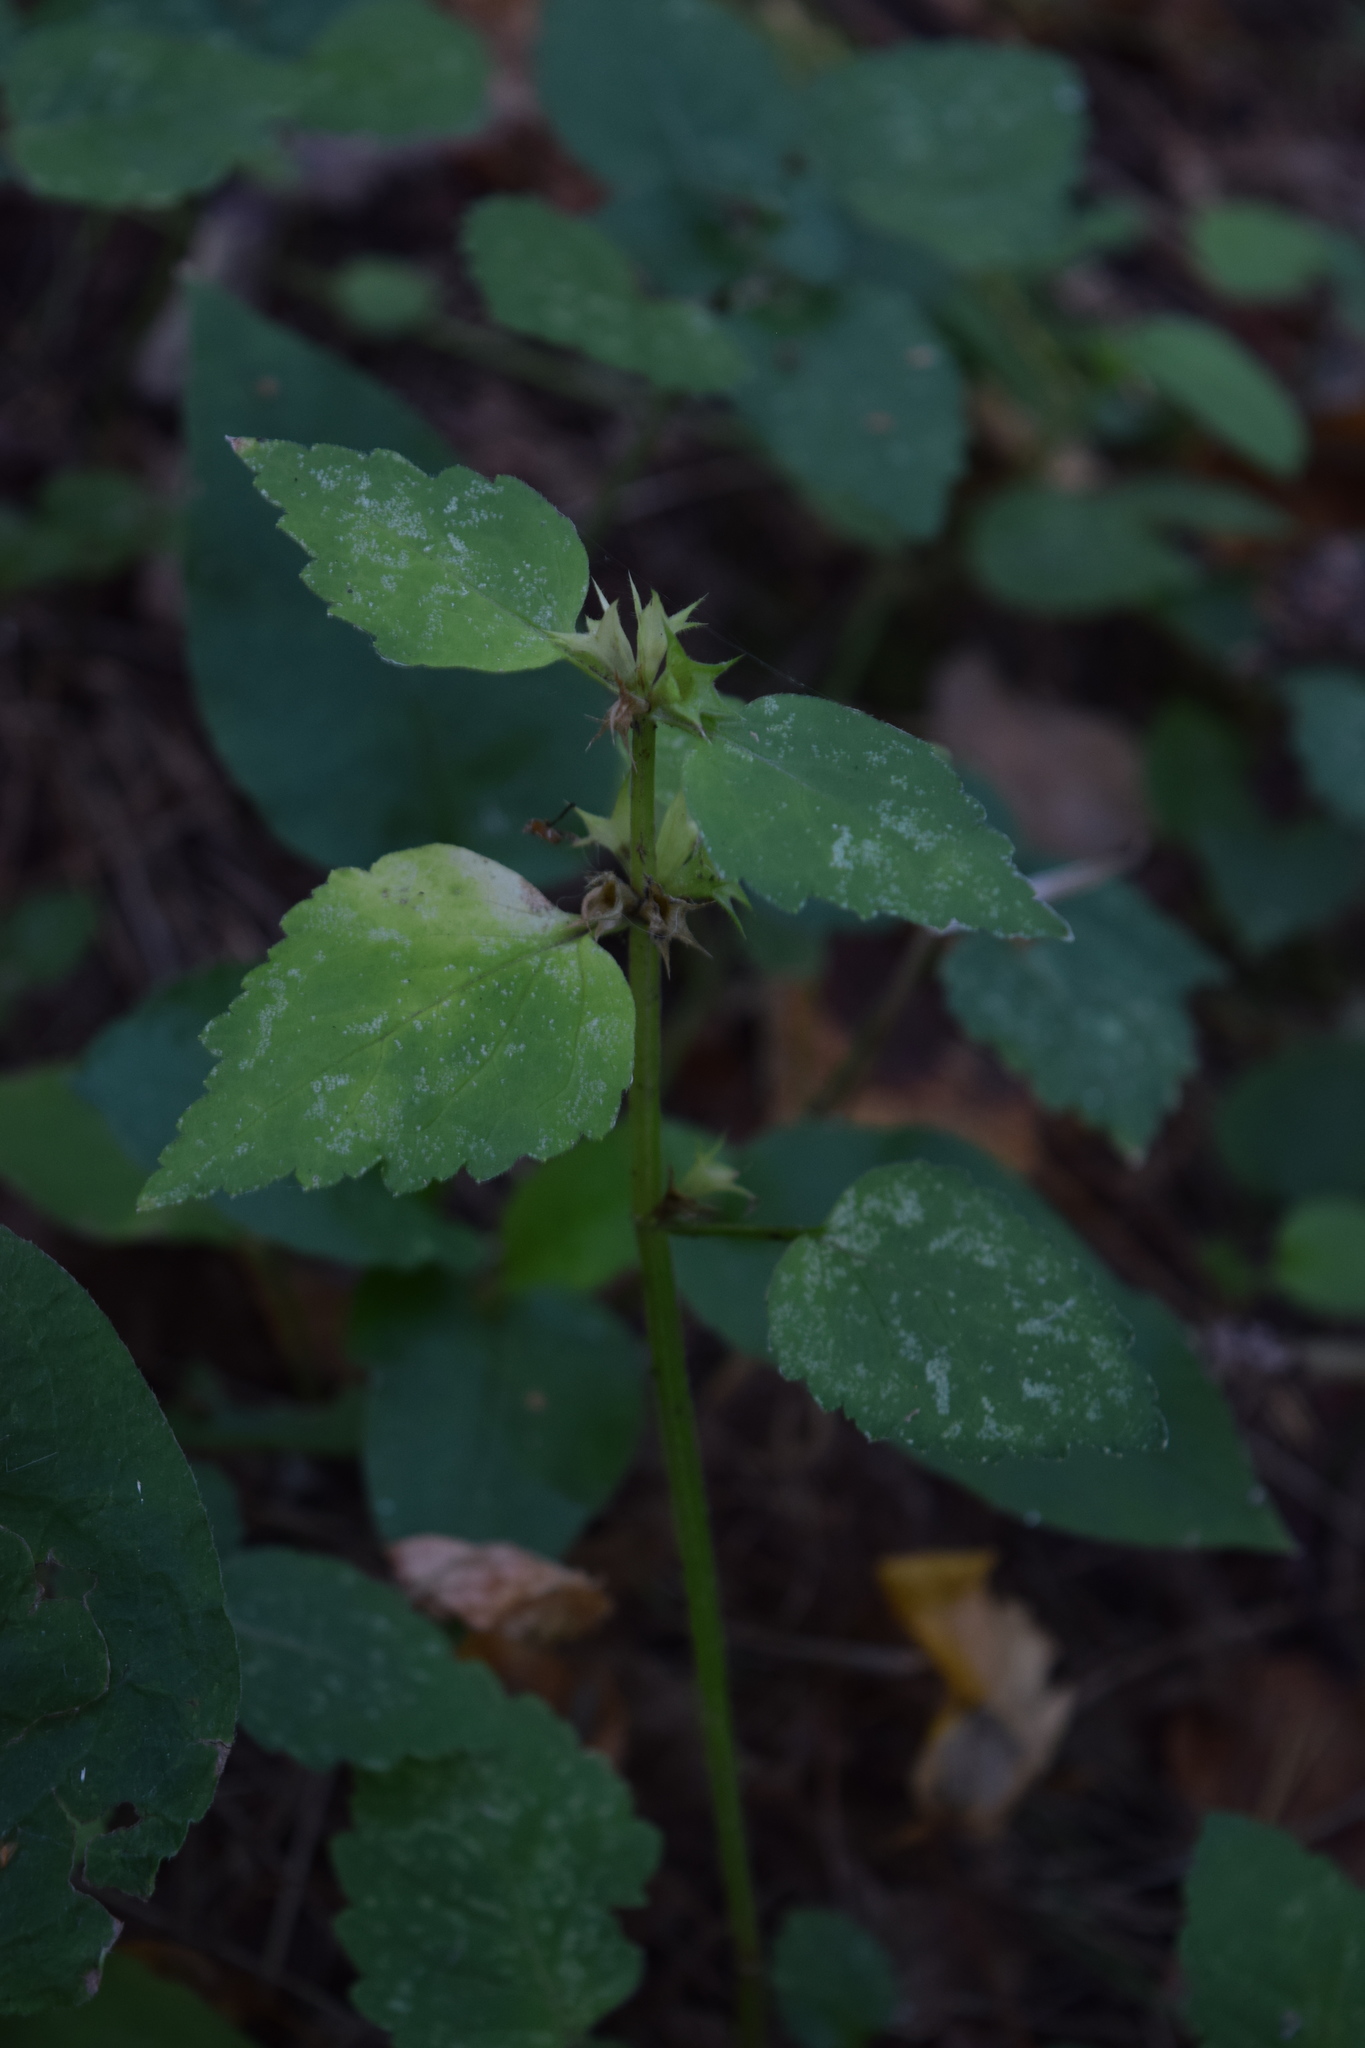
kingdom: Plantae
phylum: Tracheophyta
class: Magnoliopsida
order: Lamiales
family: Lamiaceae
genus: Lamium
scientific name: Lamium maculatum
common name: Spotted dead-nettle
